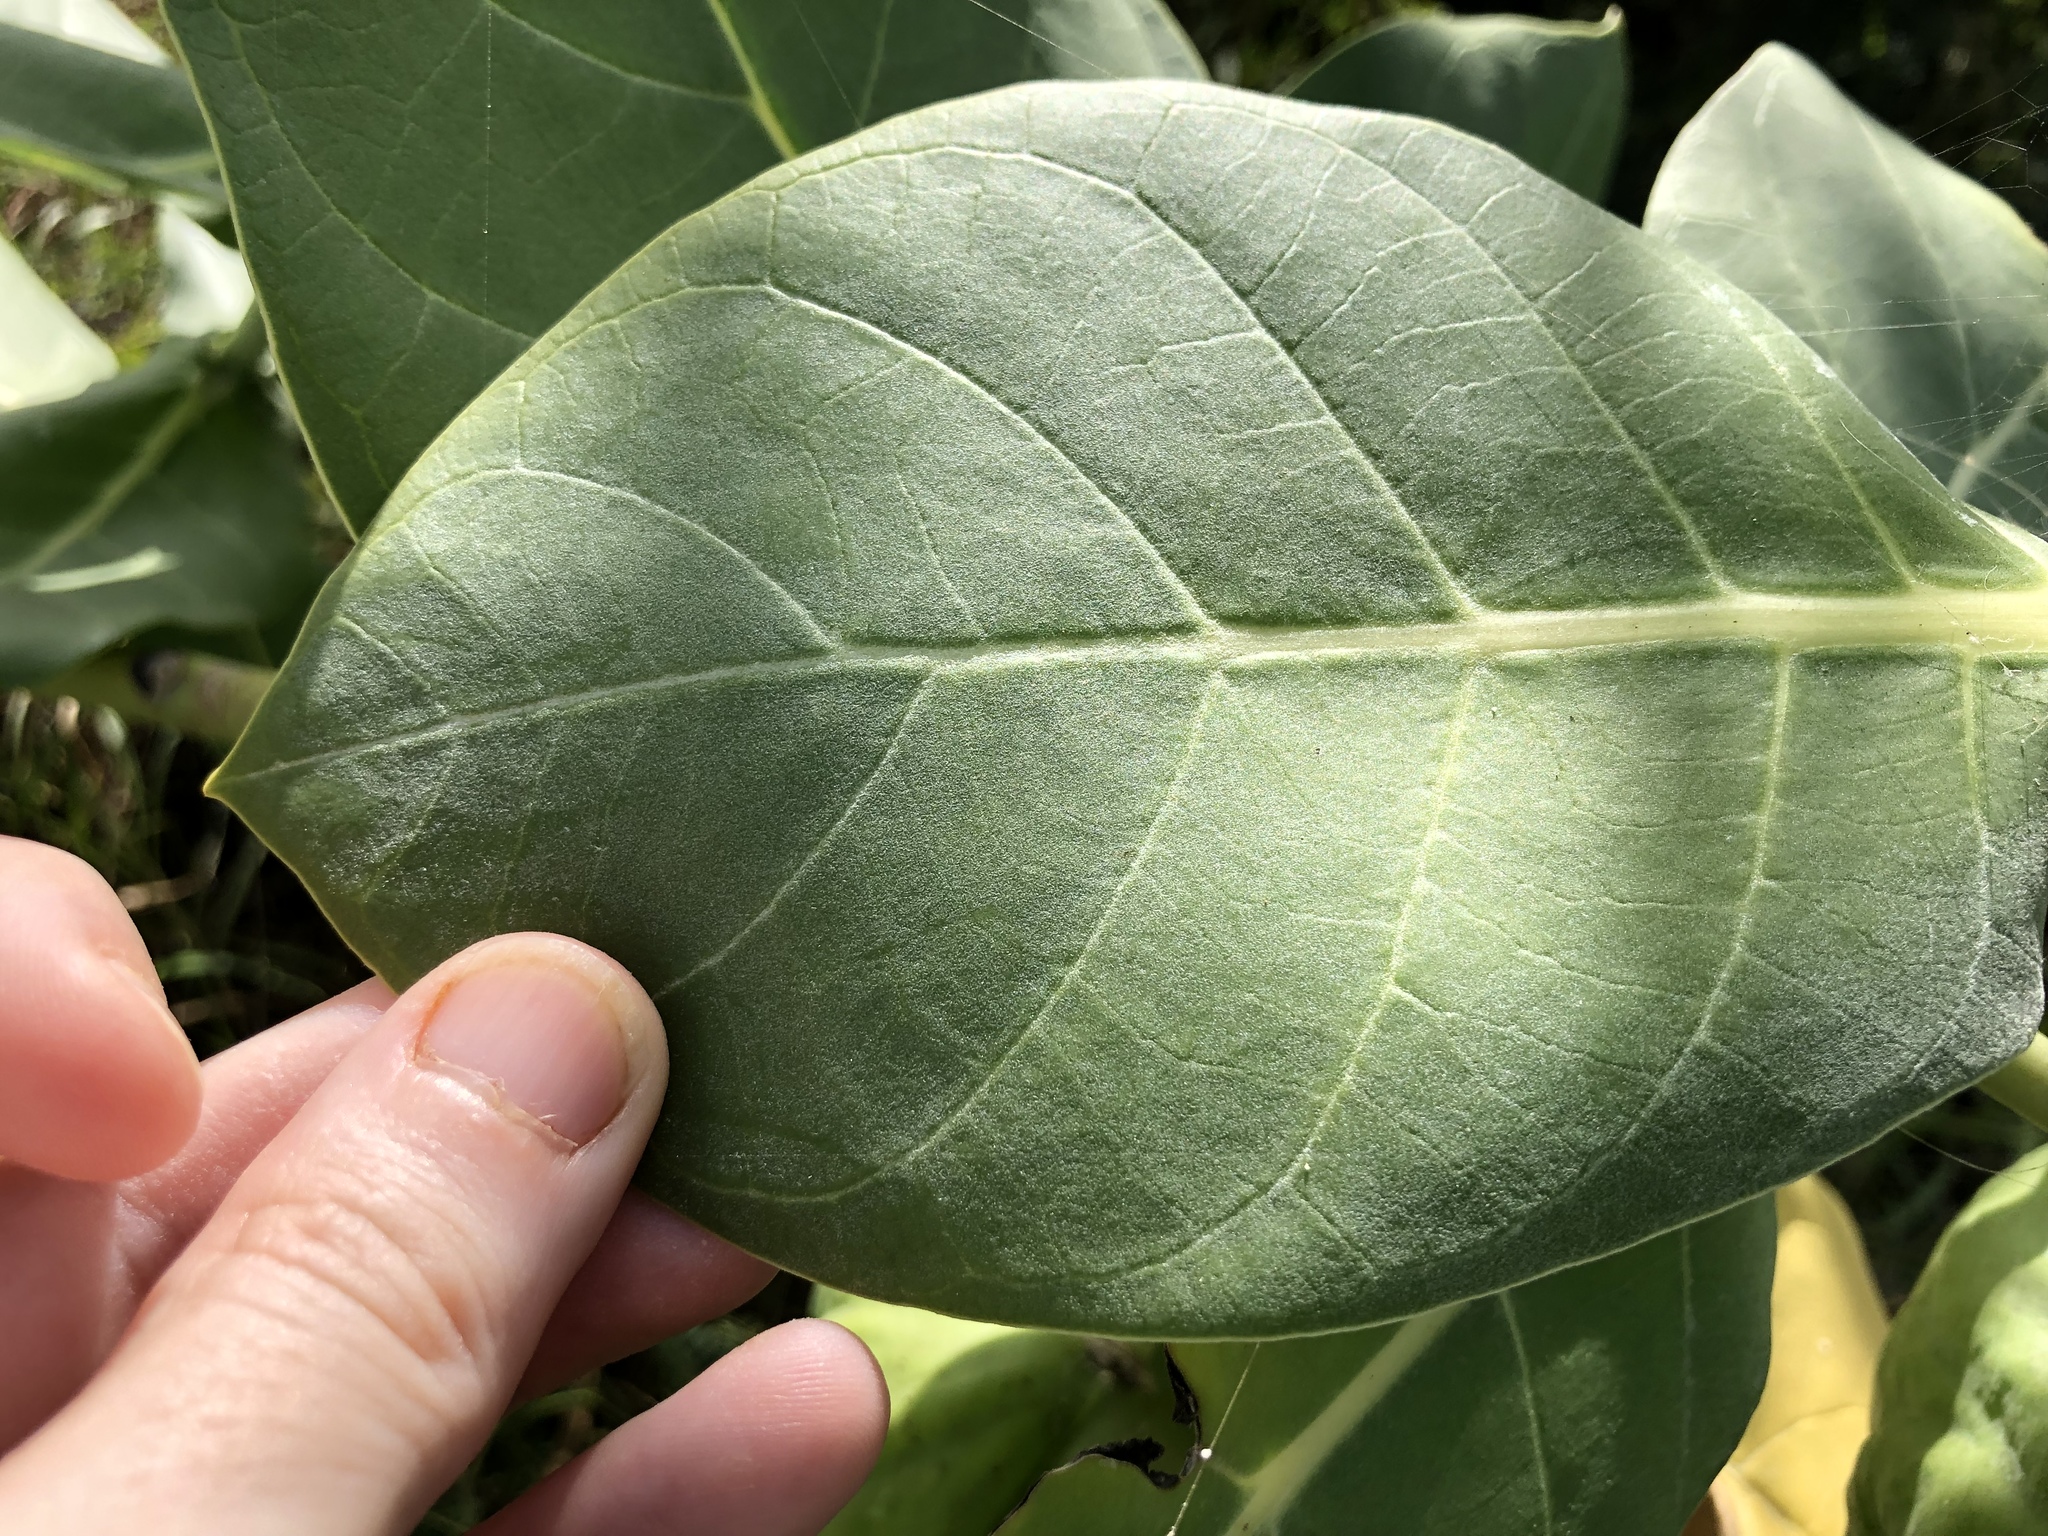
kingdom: Plantae
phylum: Tracheophyta
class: Magnoliopsida
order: Gentianales
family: Apocynaceae
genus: Calotropis
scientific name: Calotropis procera
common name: Roostertree
